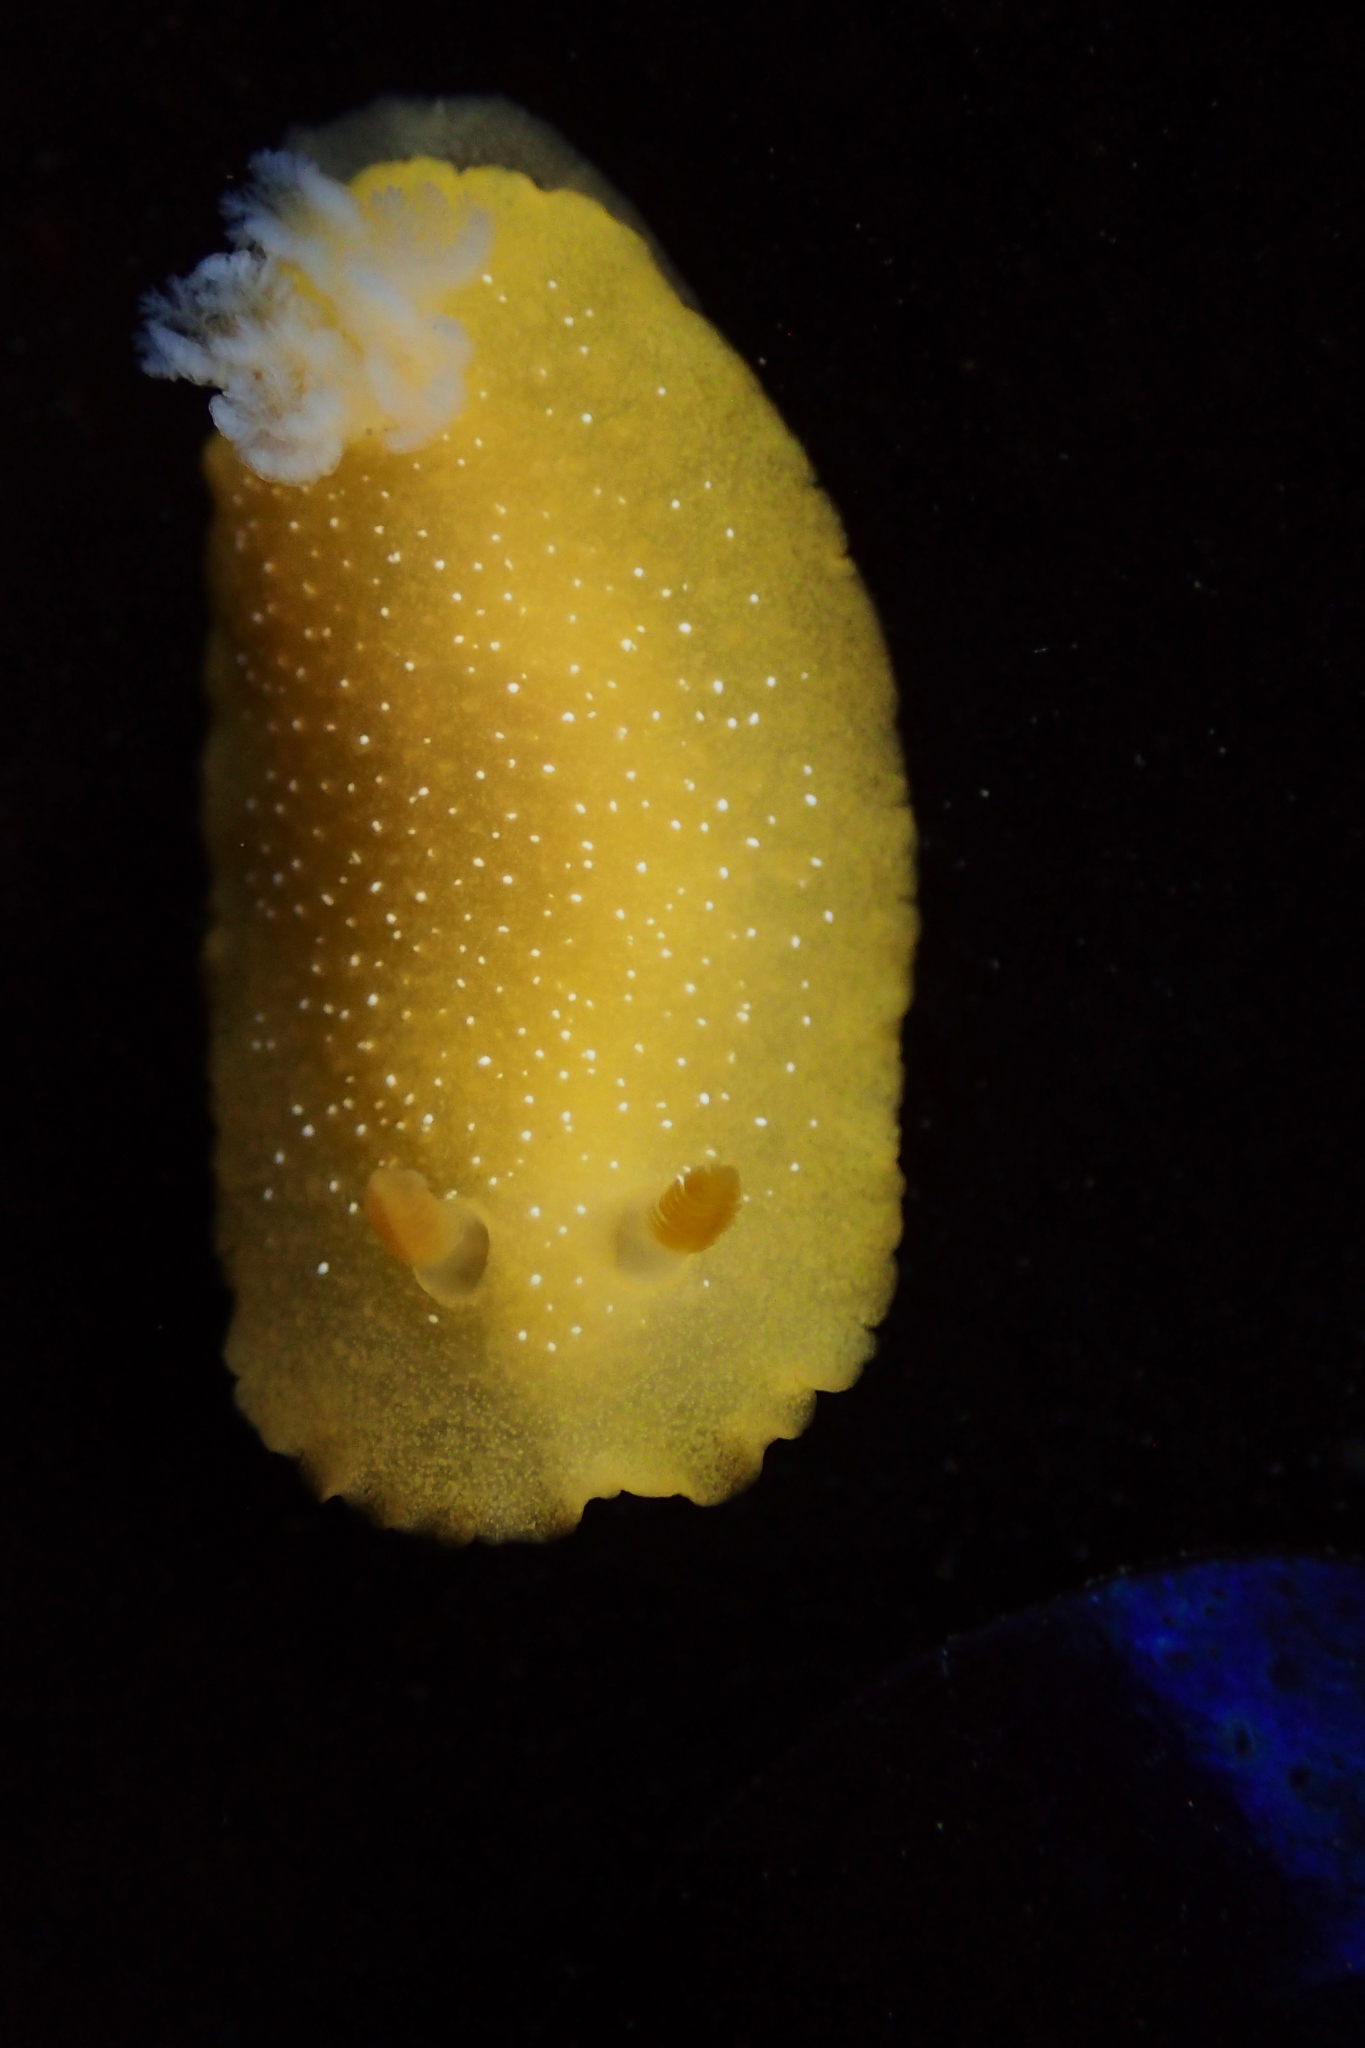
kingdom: Animalia
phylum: Mollusca
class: Gastropoda
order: Nudibranchia
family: Dendrodorididae
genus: Doriopsilla
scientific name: Doriopsilla fulva
